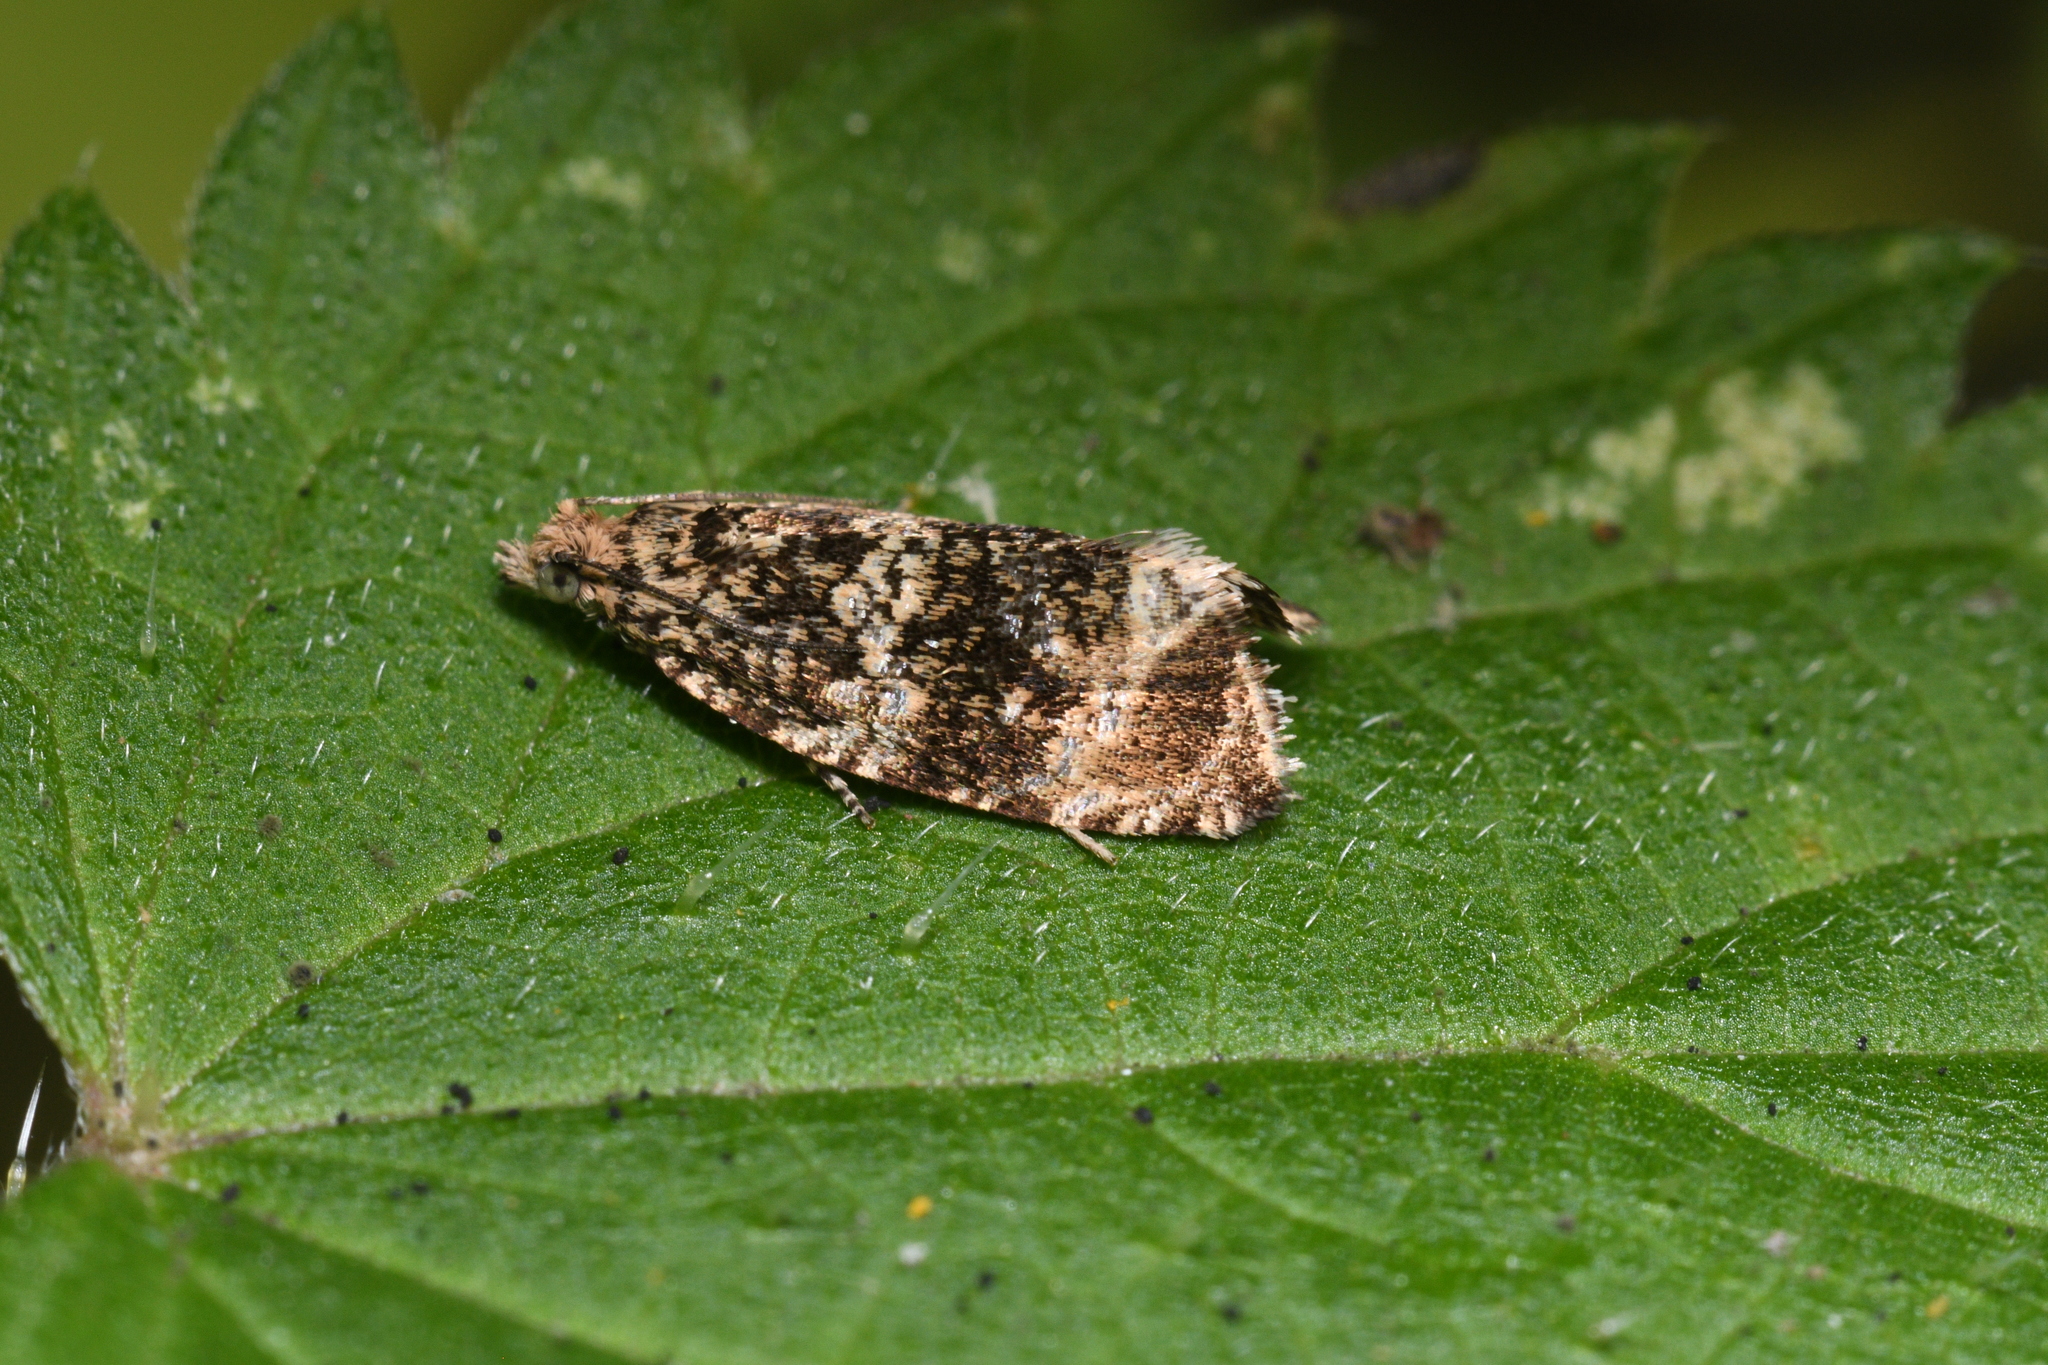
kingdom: Animalia
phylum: Arthropoda
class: Insecta
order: Lepidoptera
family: Tortricidae
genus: Syricoris
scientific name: Syricoris lacunana
